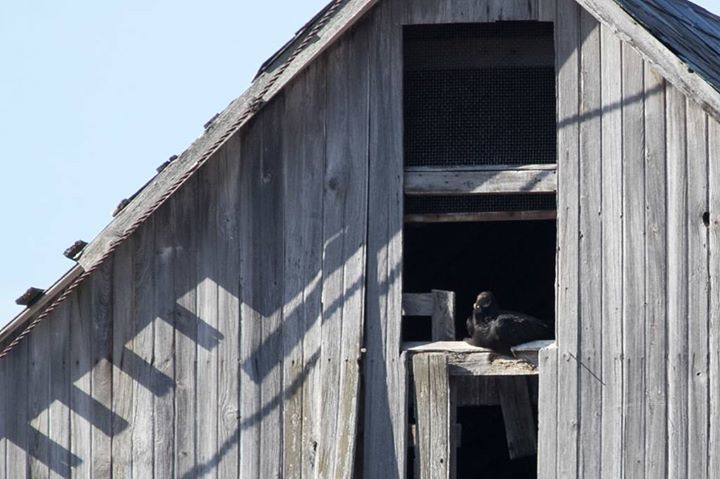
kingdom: Animalia
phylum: Chordata
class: Aves
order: Accipitriformes
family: Cathartidae
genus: Coragyps
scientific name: Coragyps atratus
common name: Black vulture
